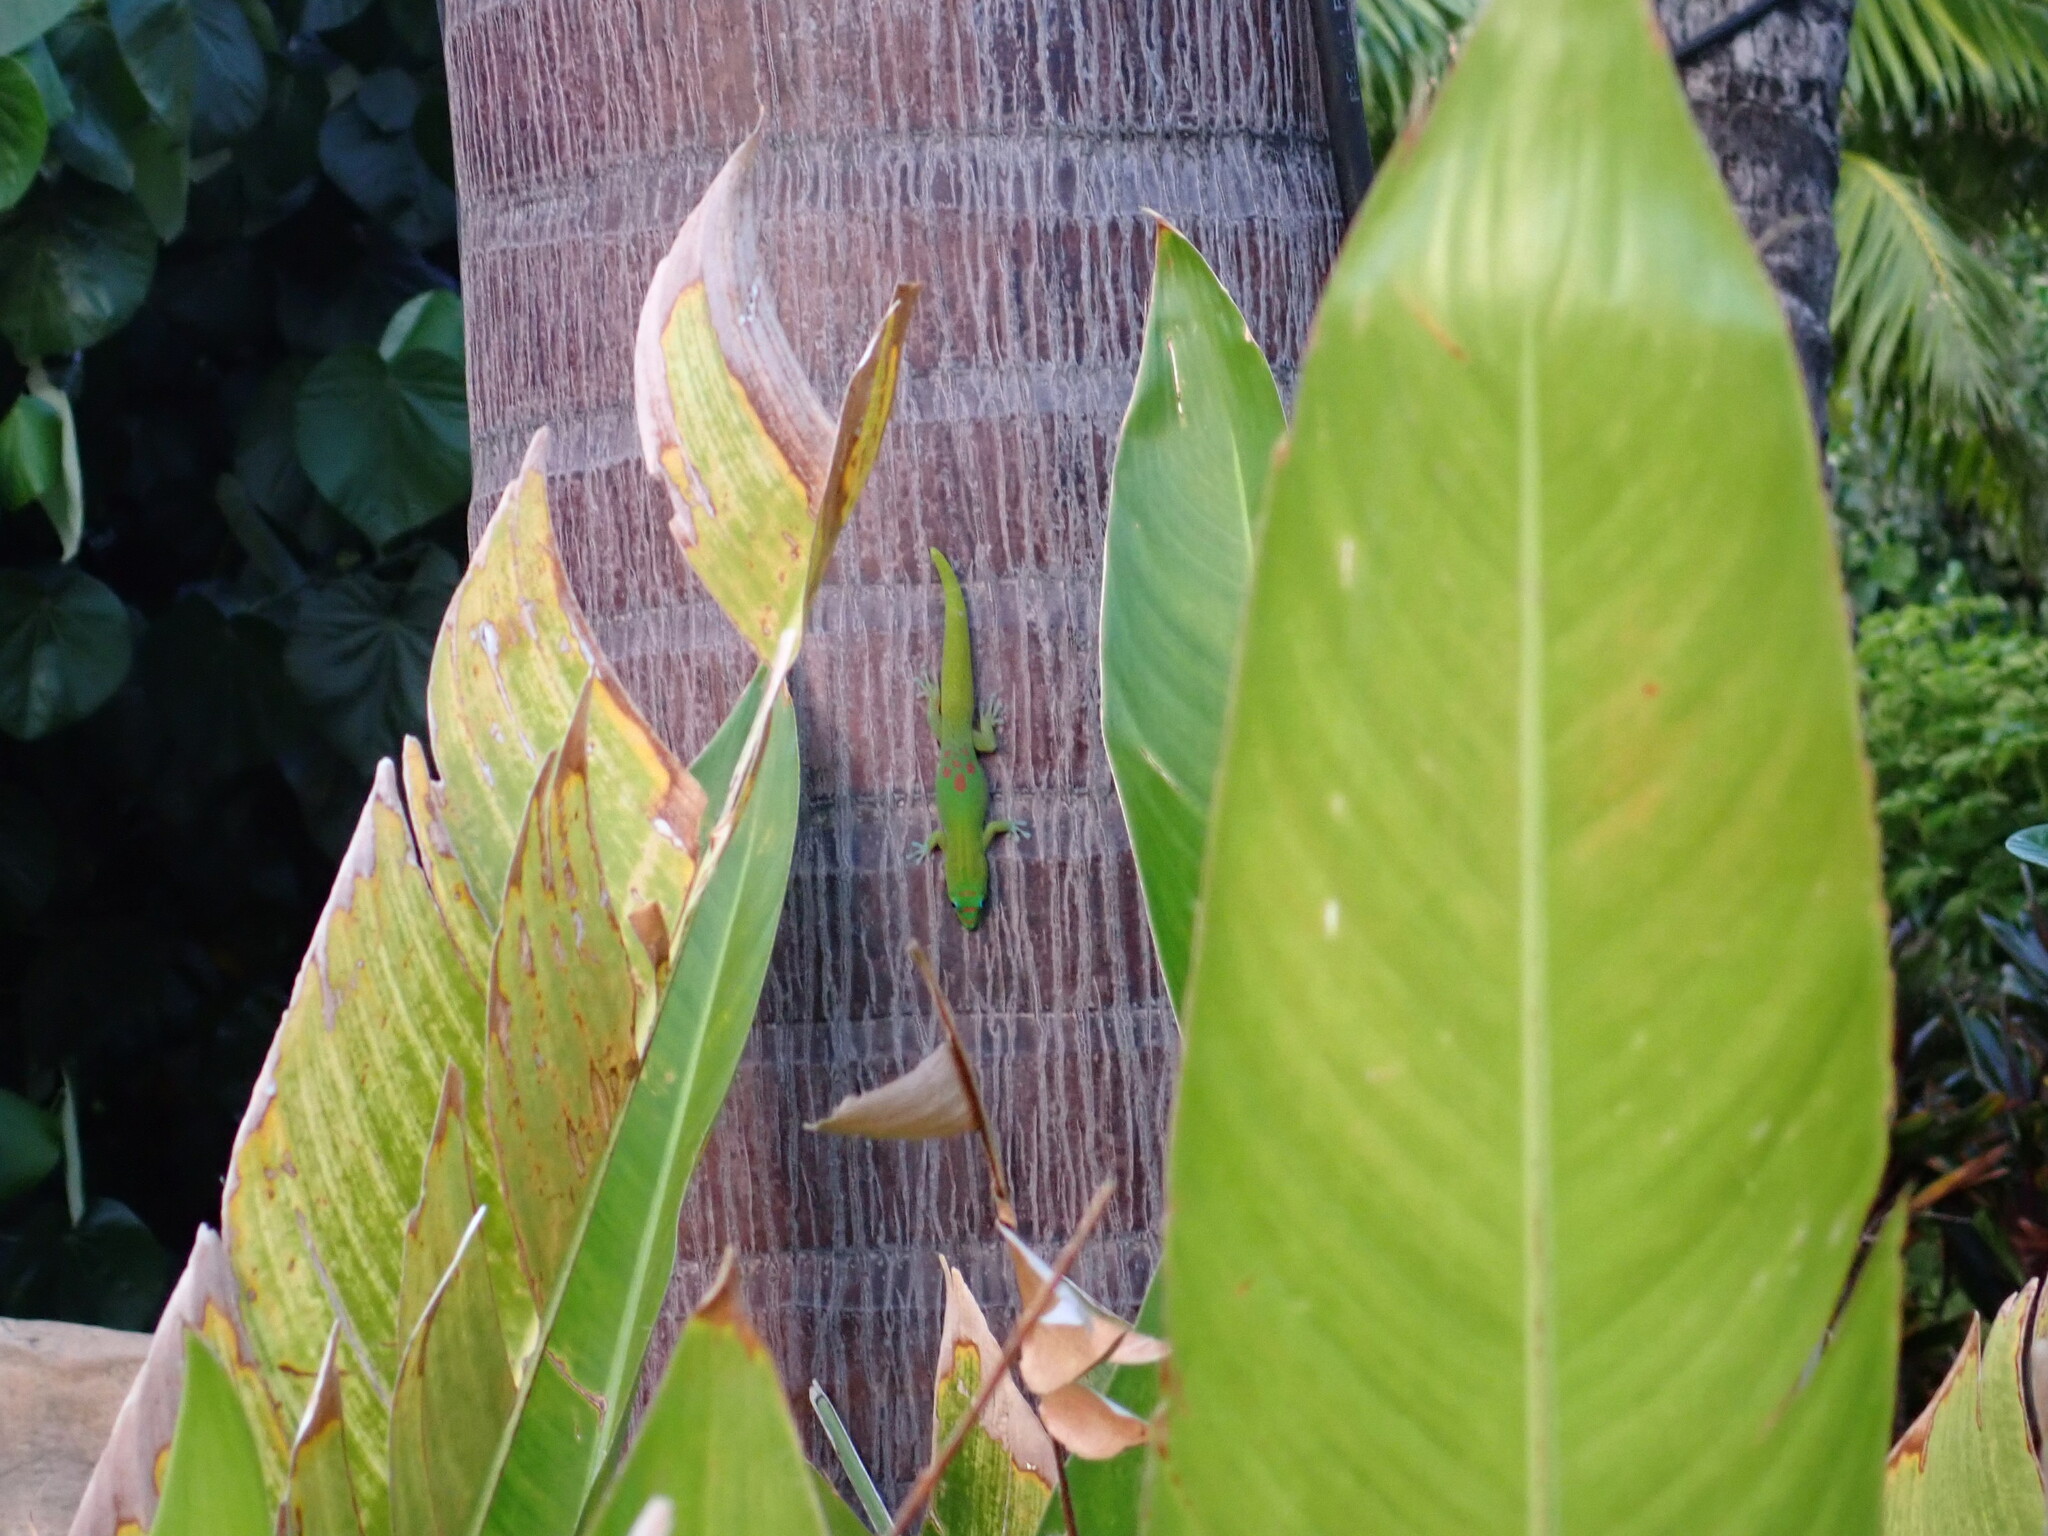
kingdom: Animalia
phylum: Chordata
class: Squamata
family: Gekkonidae
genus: Phelsuma
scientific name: Phelsuma laticauda
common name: Gold dust day gecko
